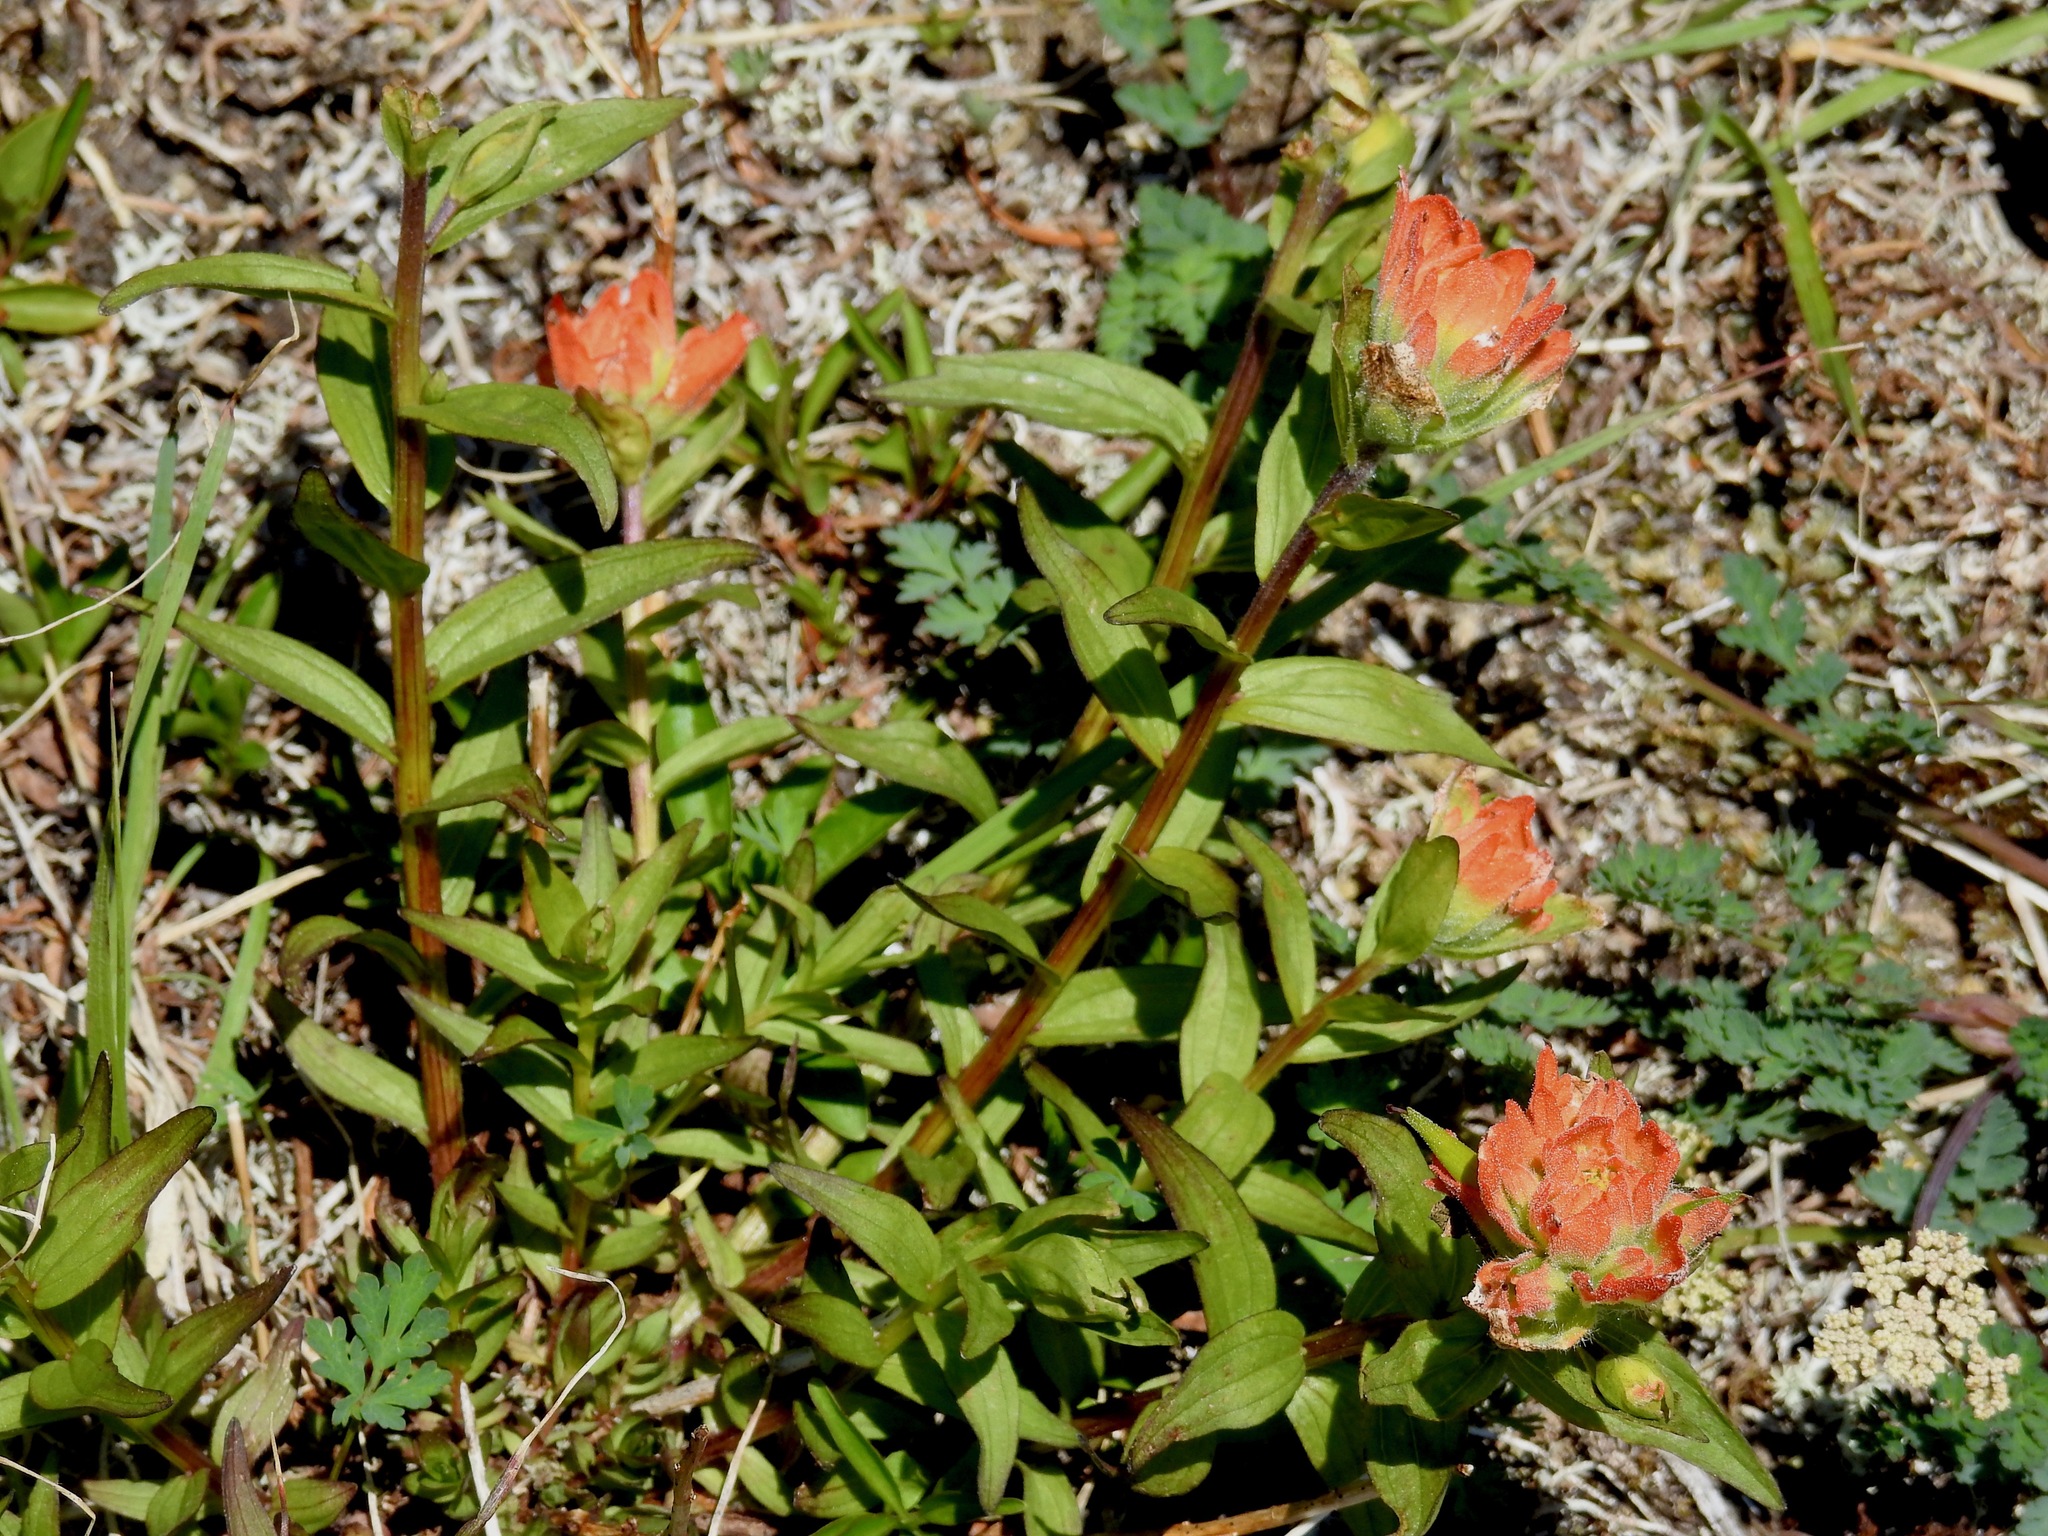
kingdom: Plantae
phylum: Tracheophyta
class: Magnoliopsida
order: Lamiales
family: Orobanchaceae
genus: Castilleja
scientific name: Castilleja miniata
